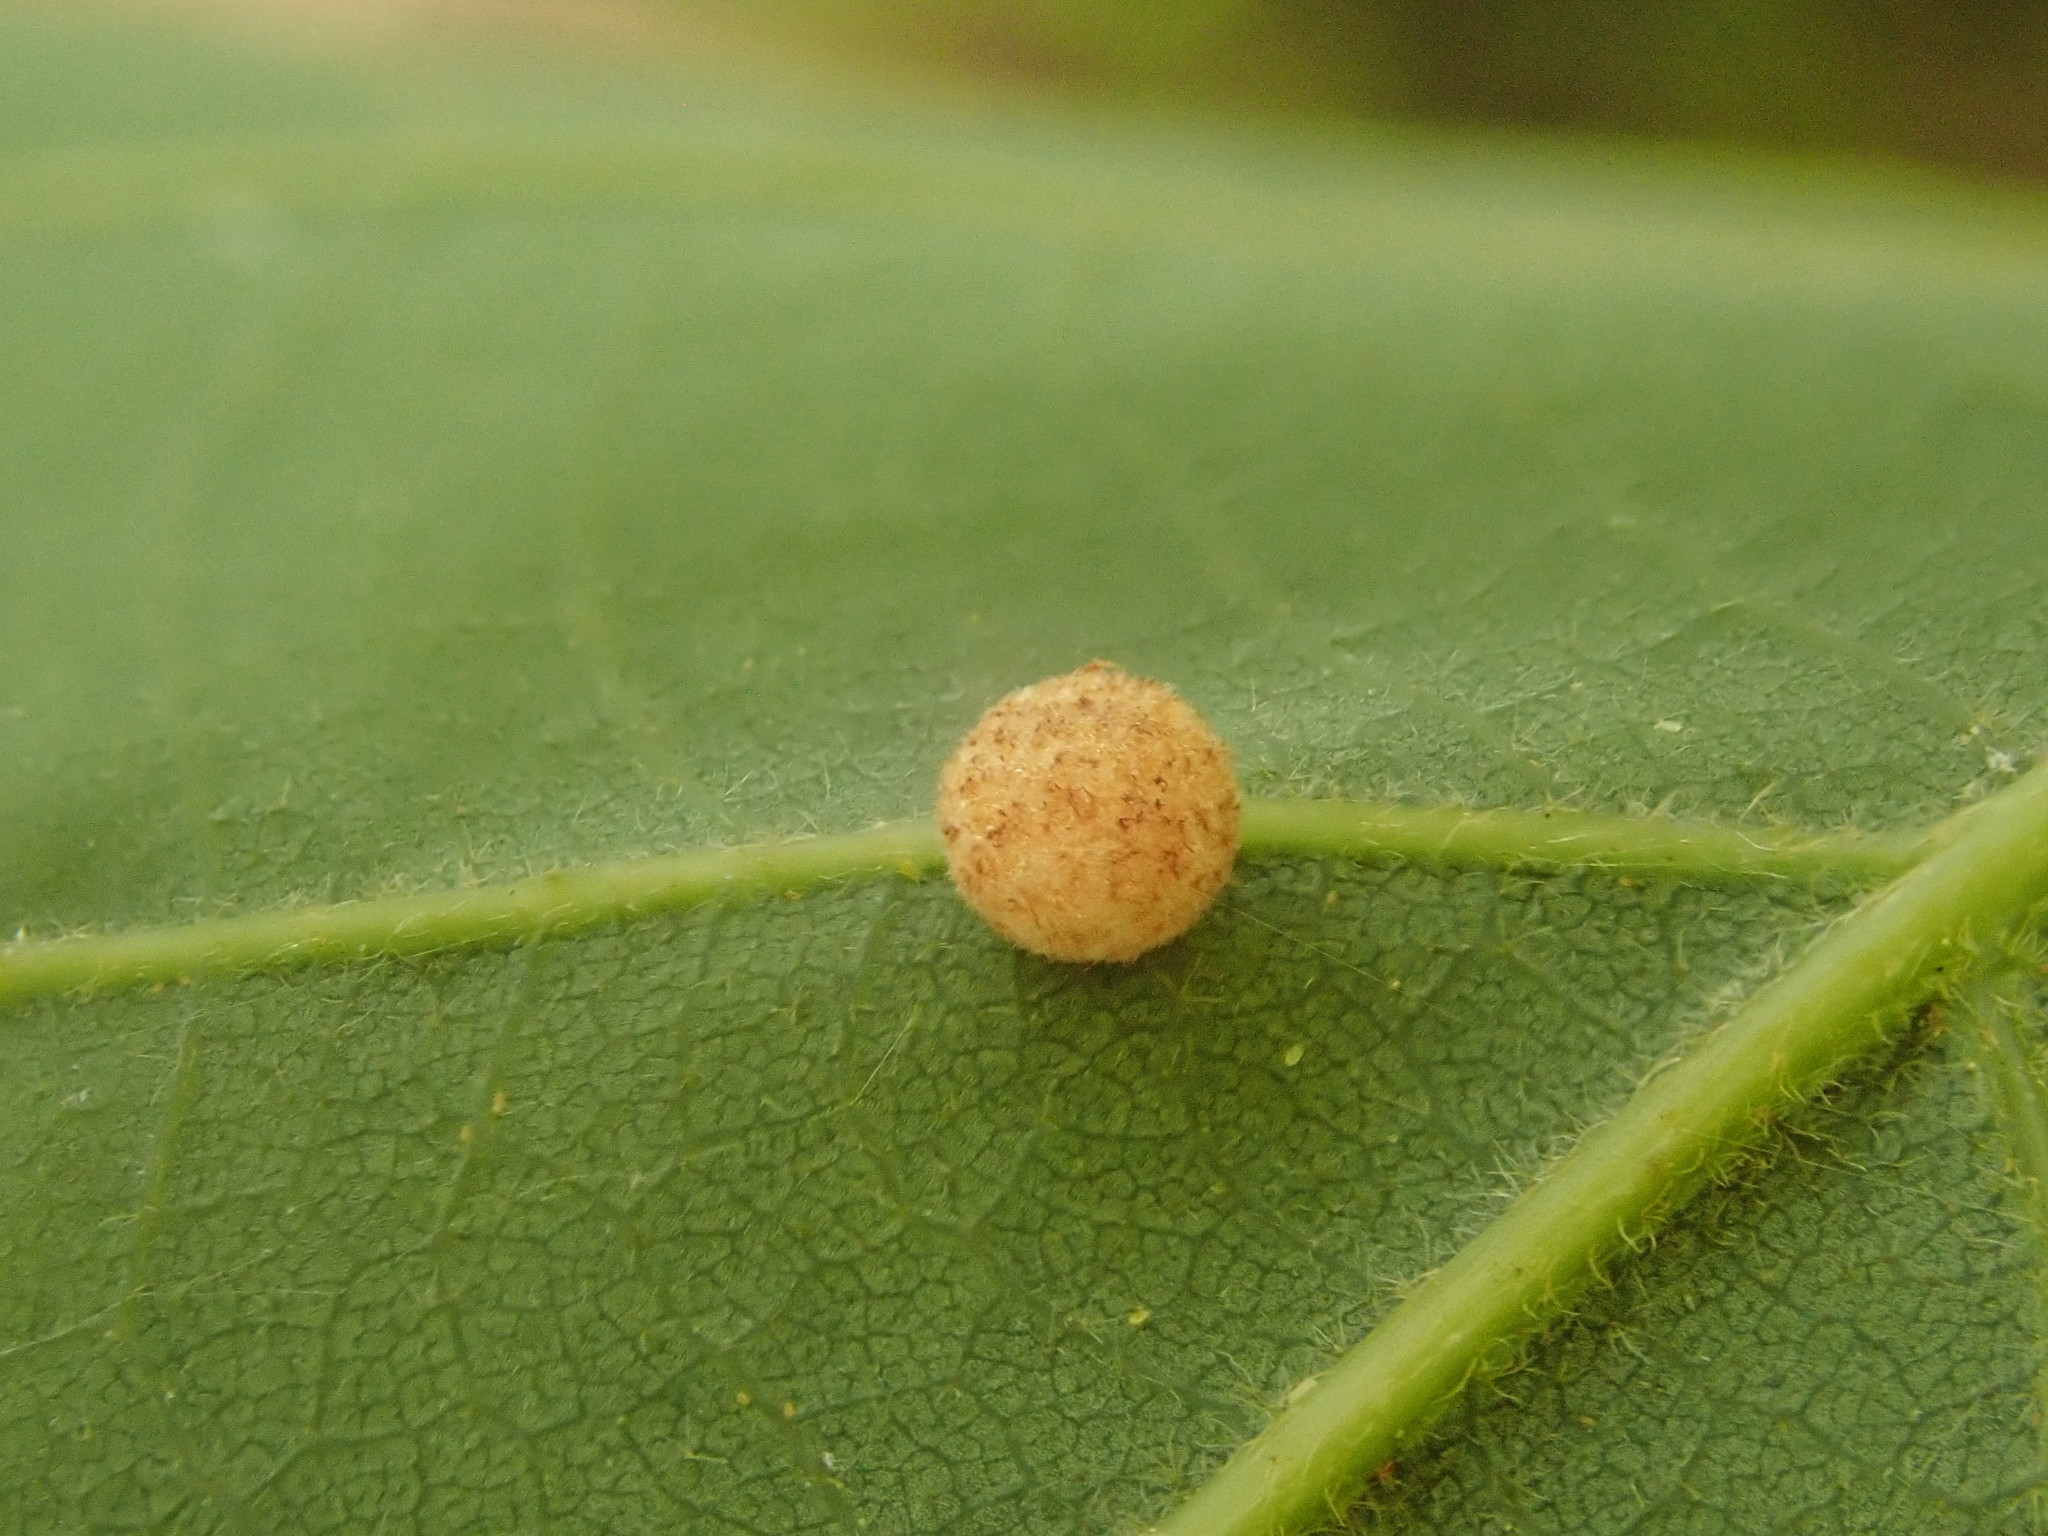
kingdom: Animalia
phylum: Arthropoda
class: Insecta
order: Hymenoptera
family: Cynipidae
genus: Philonix
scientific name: Philonix fulvicollis
